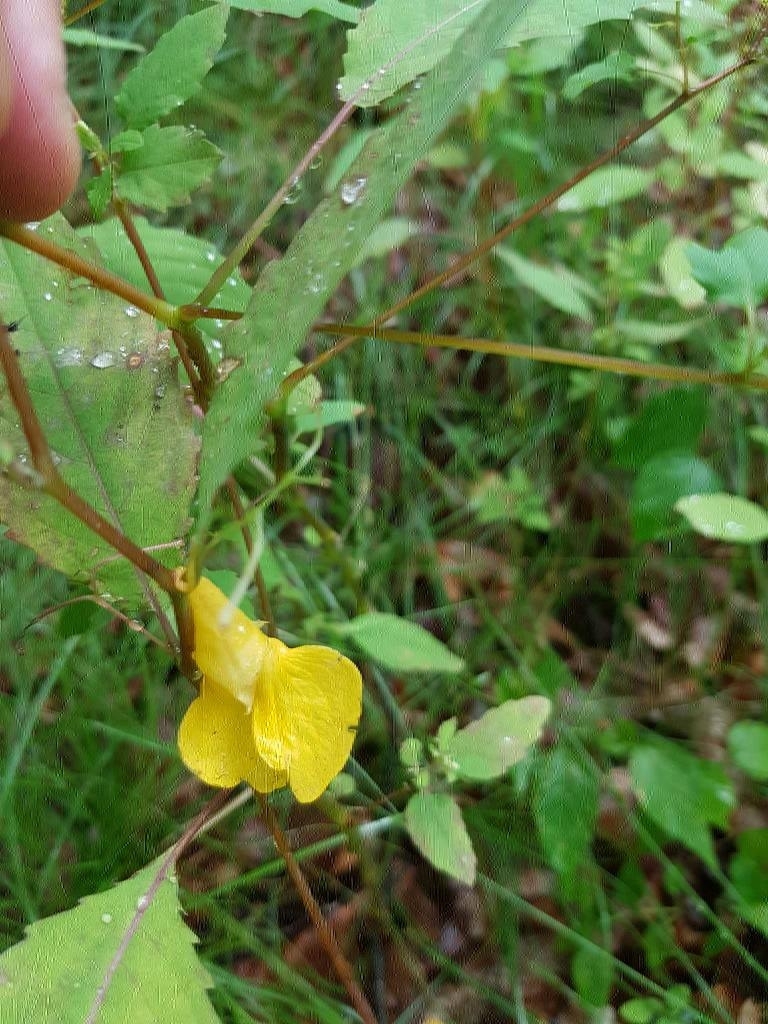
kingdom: Plantae
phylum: Tracheophyta
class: Magnoliopsida
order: Ericales
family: Balsaminaceae
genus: Impatiens
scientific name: Impatiens noli-tangere
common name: Touch-me-not balsam
